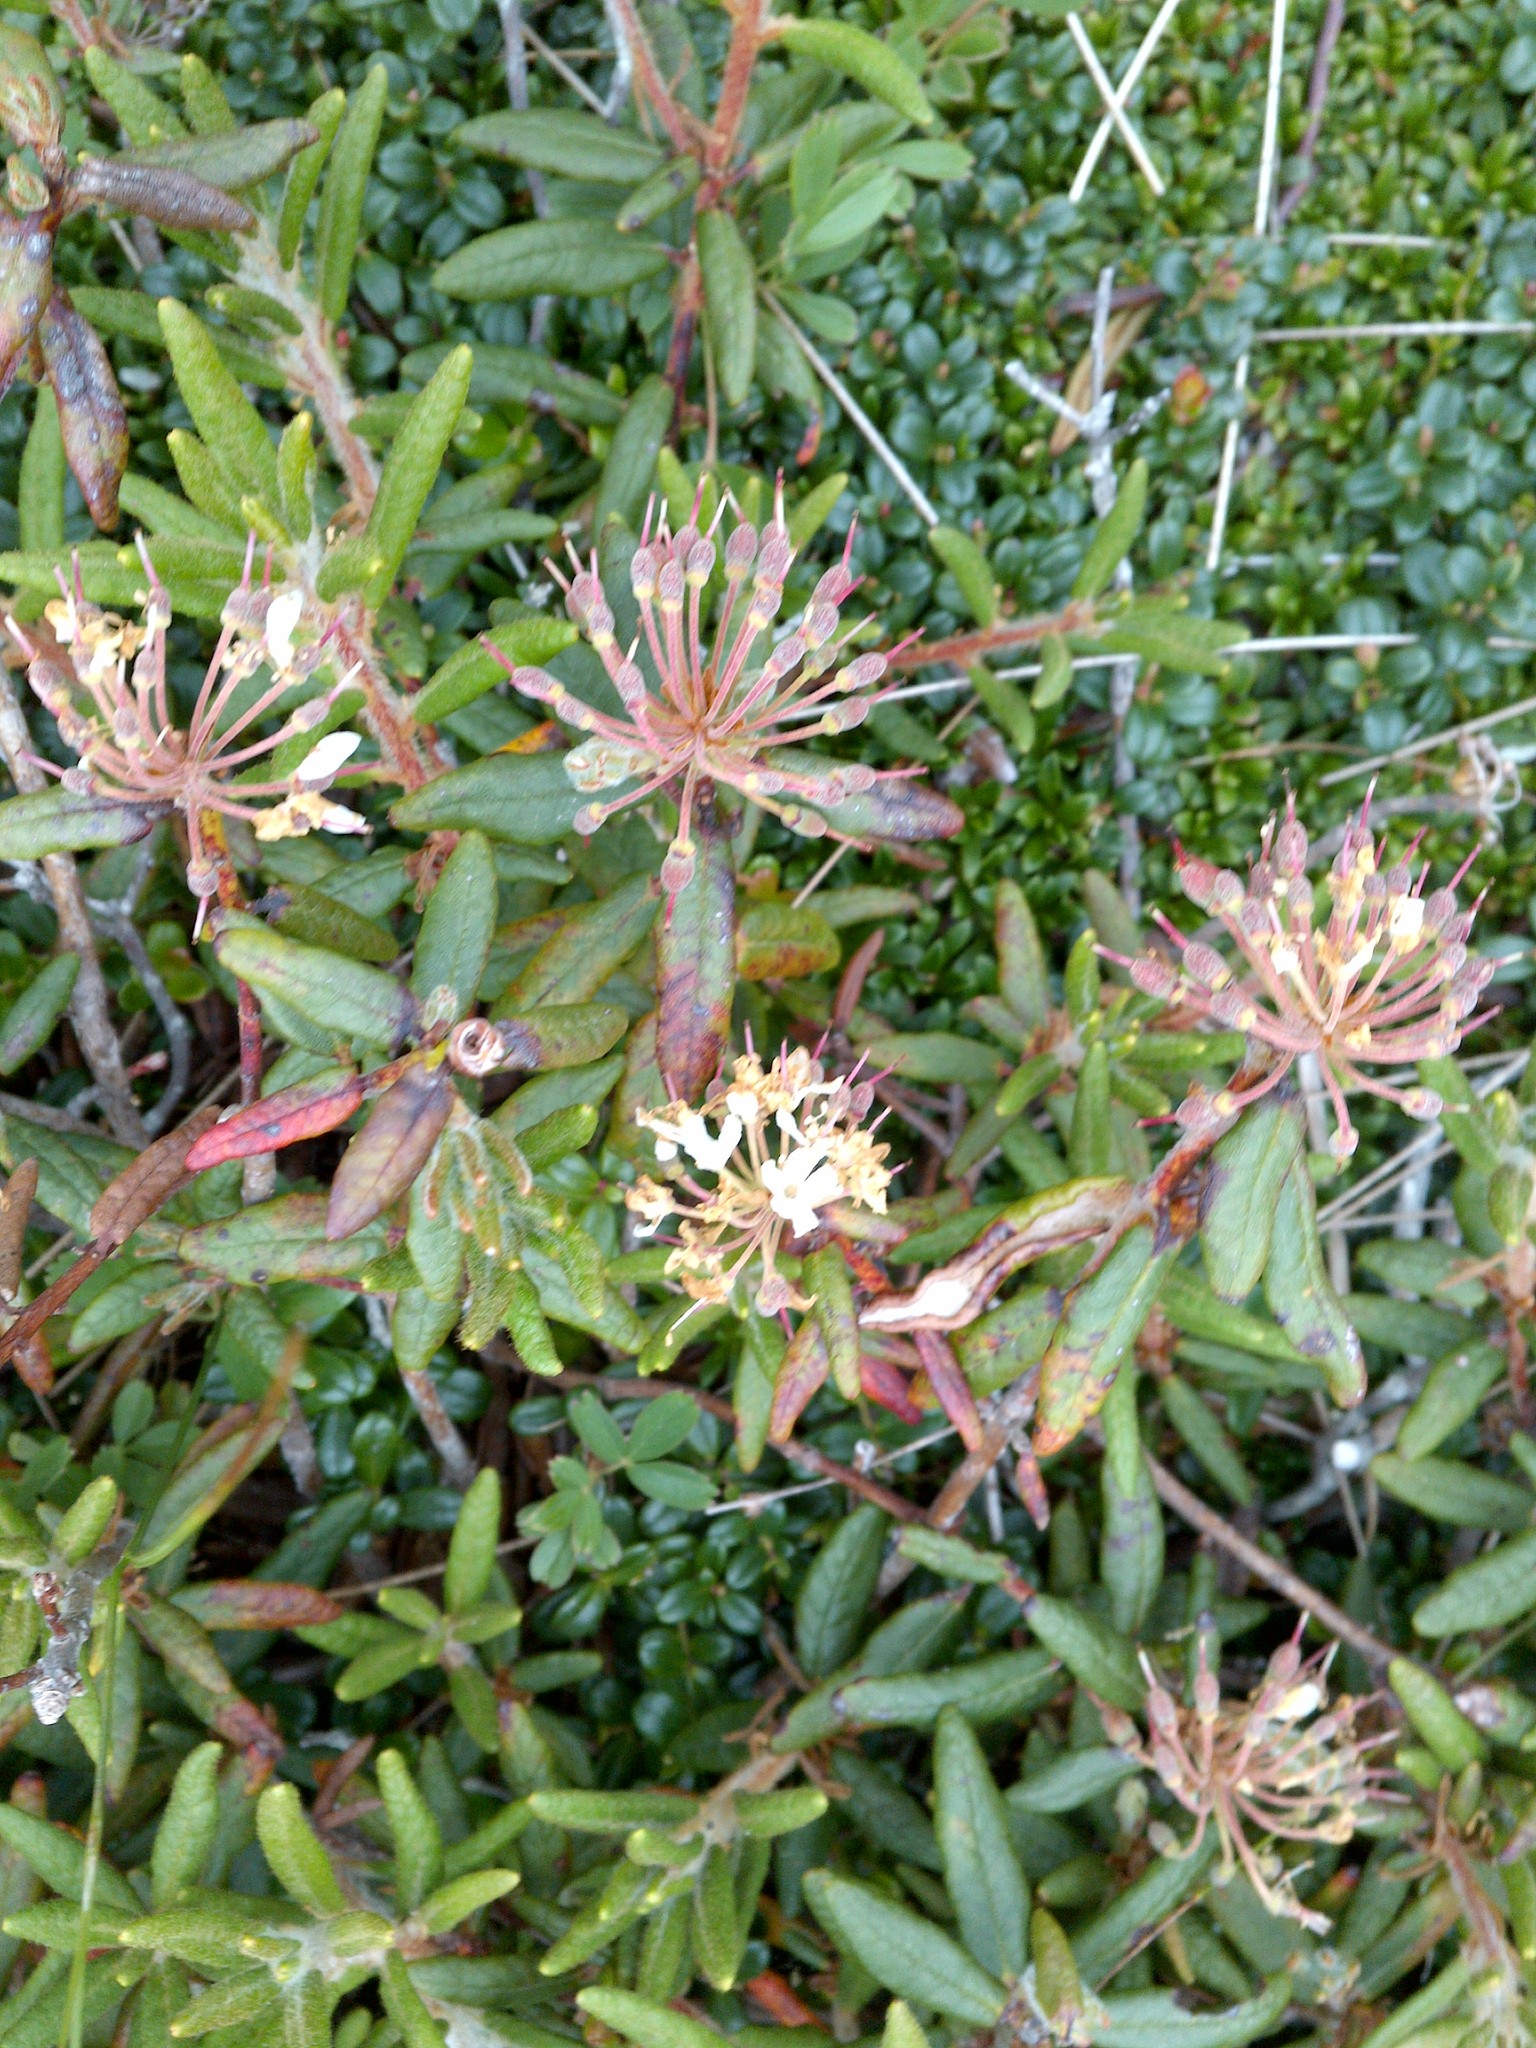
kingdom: Plantae
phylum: Tracheophyta
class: Magnoliopsida
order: Ericales
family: Ericaceae
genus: Rhododendron
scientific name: Rhododendron groenlandicum
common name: Bog labrador tea
